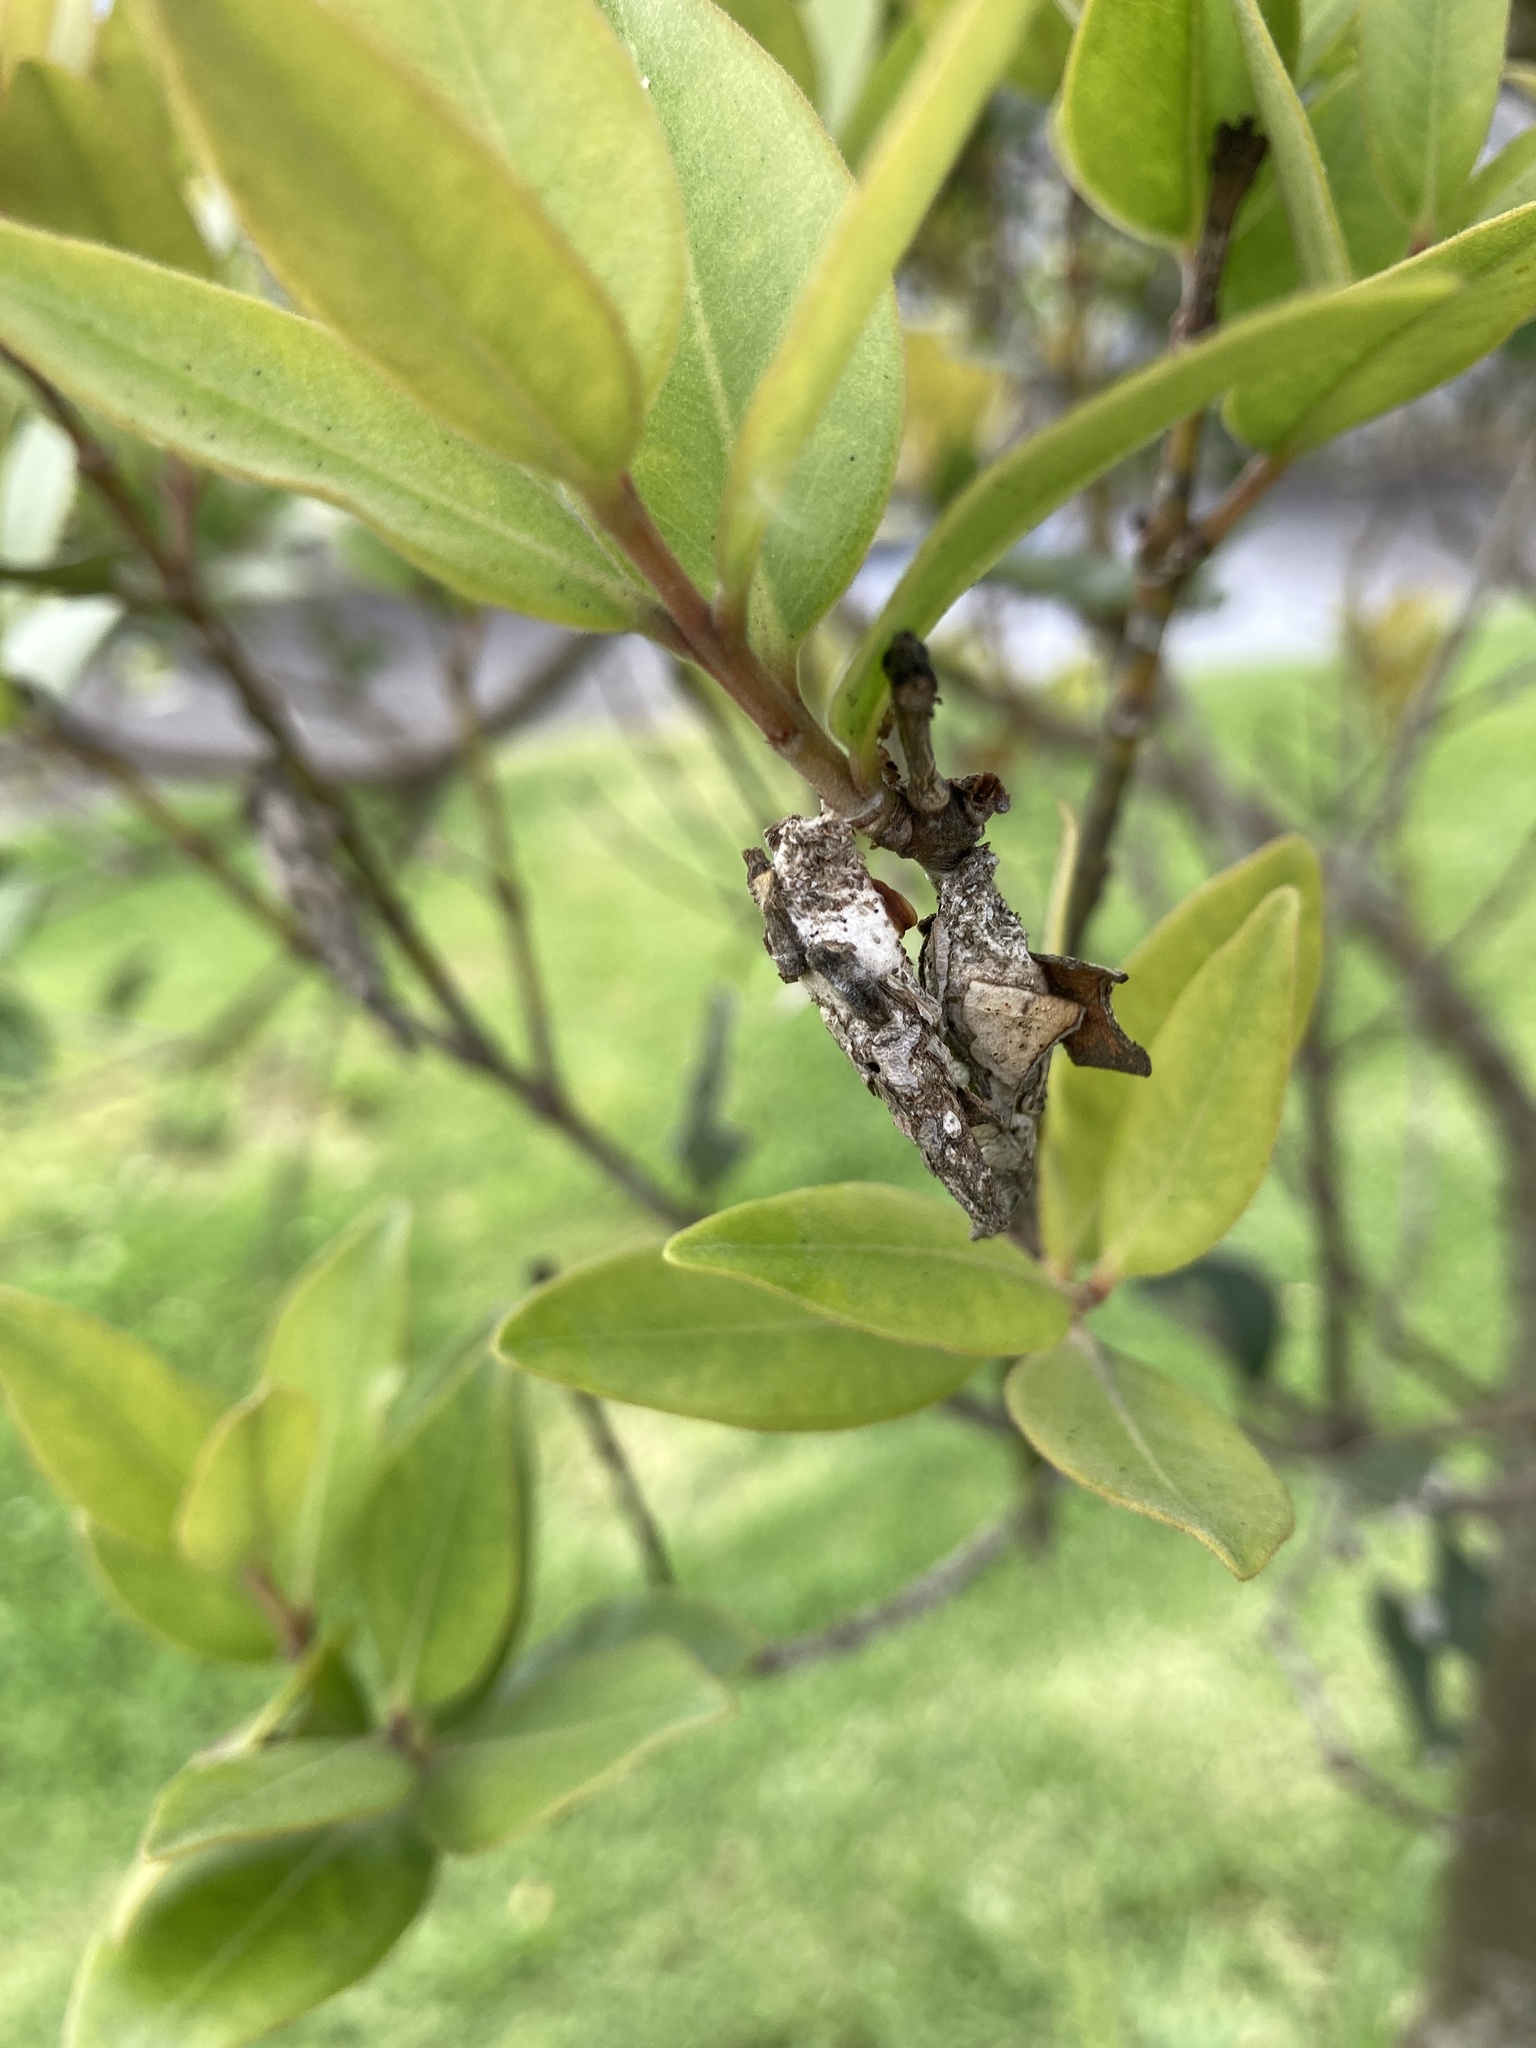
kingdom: Animalia
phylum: Arthropoda
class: Insecta
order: Lepidoptera
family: Psychidae
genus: Liothula
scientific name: Liothula omnivora
